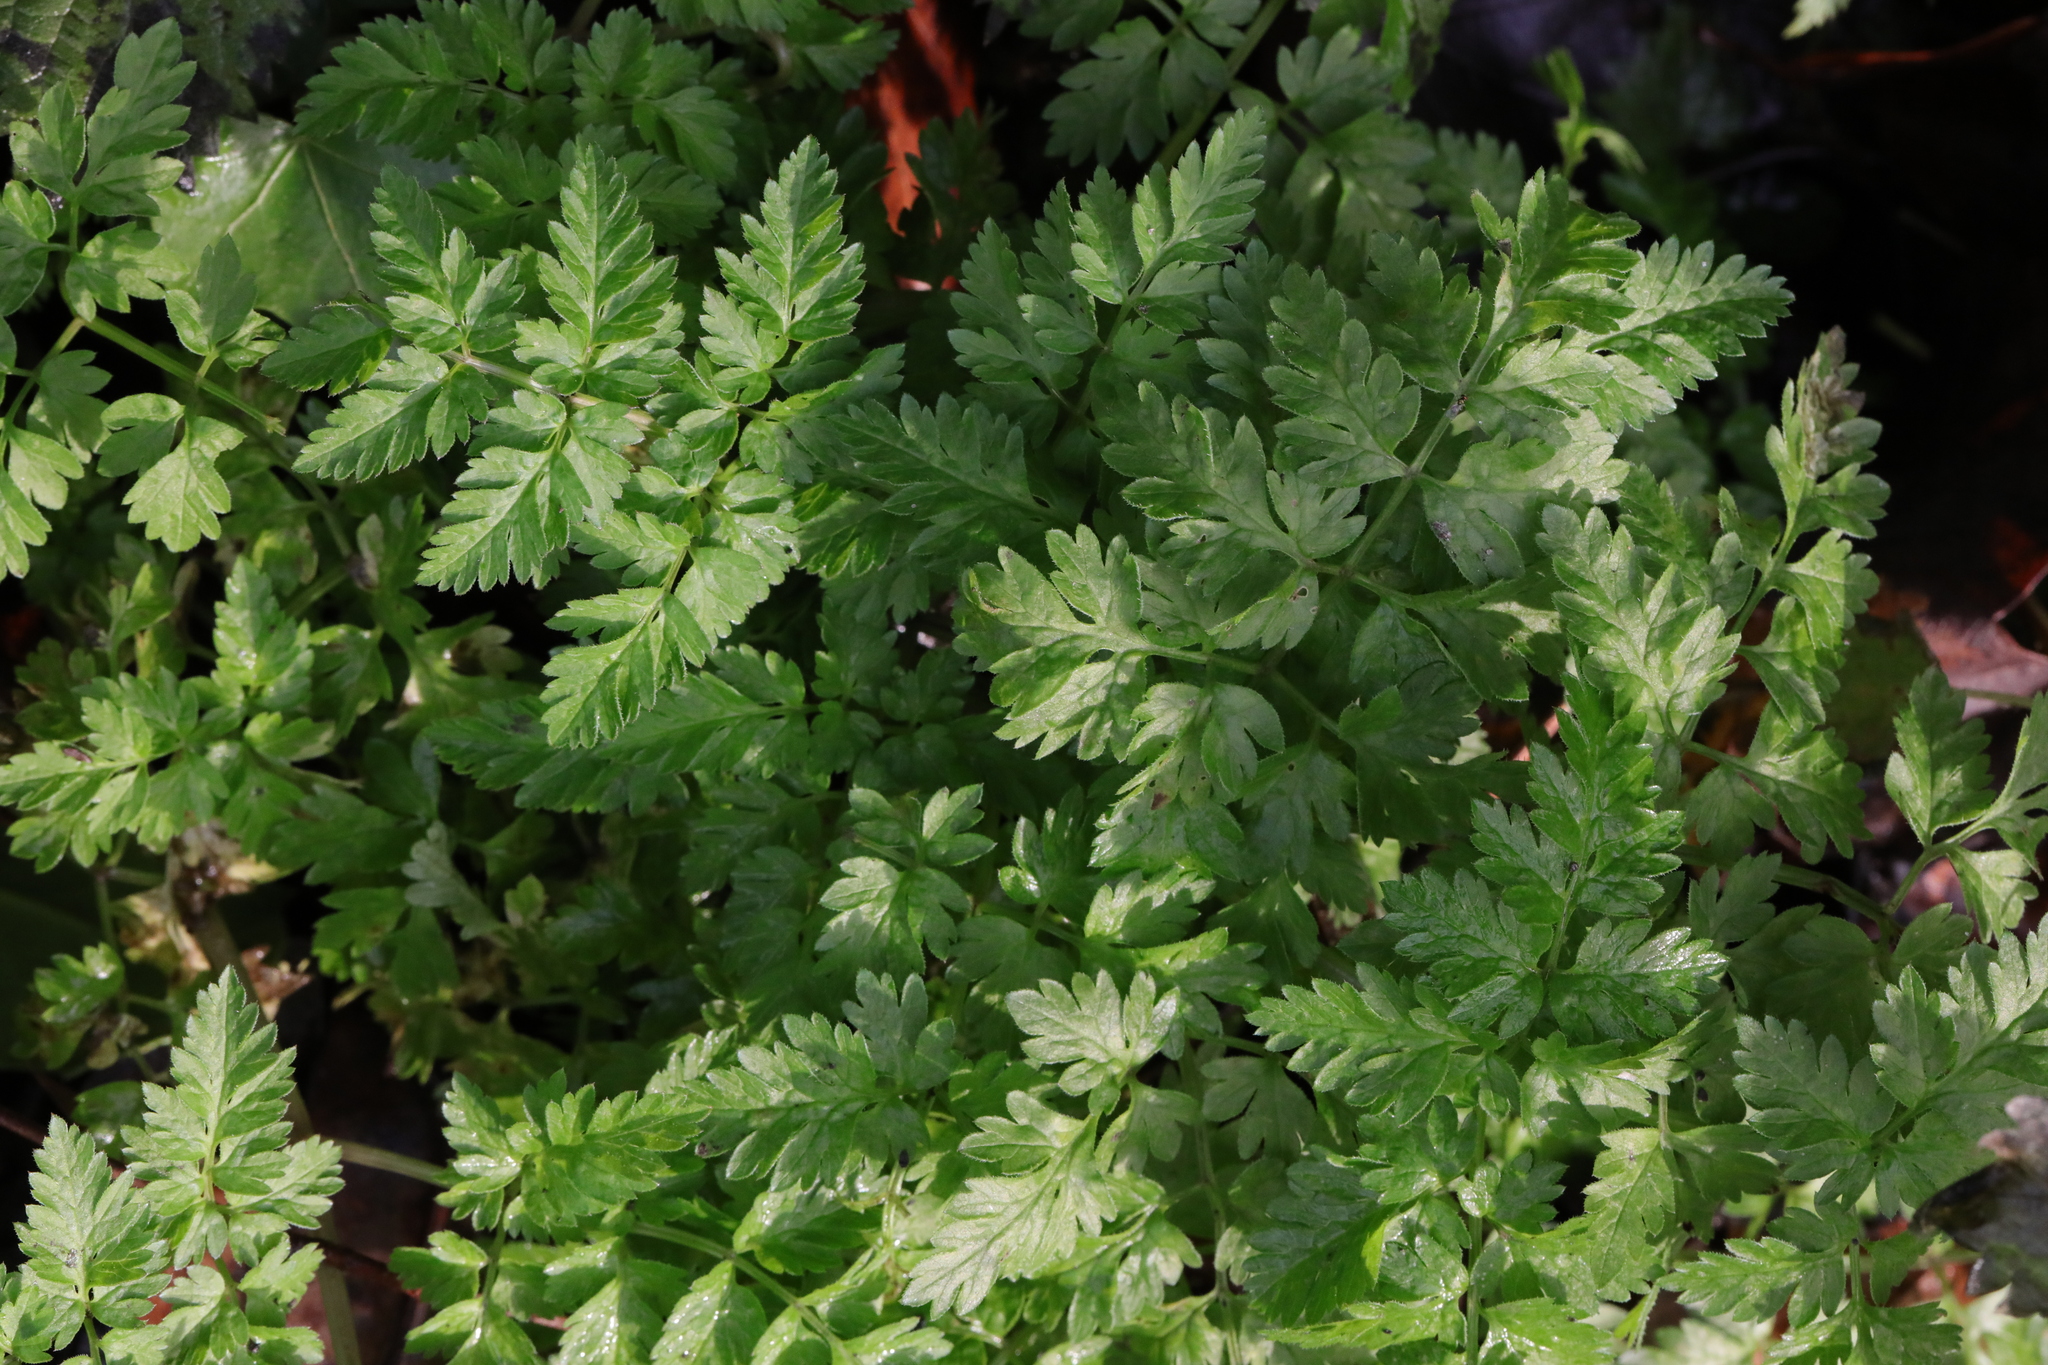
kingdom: Plantae
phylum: Tracheophyta
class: Magnoliopsida
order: Apiales
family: Apiaceae
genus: Anthriscus
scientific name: Anthriscus sylvestris
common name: Cow parsley
